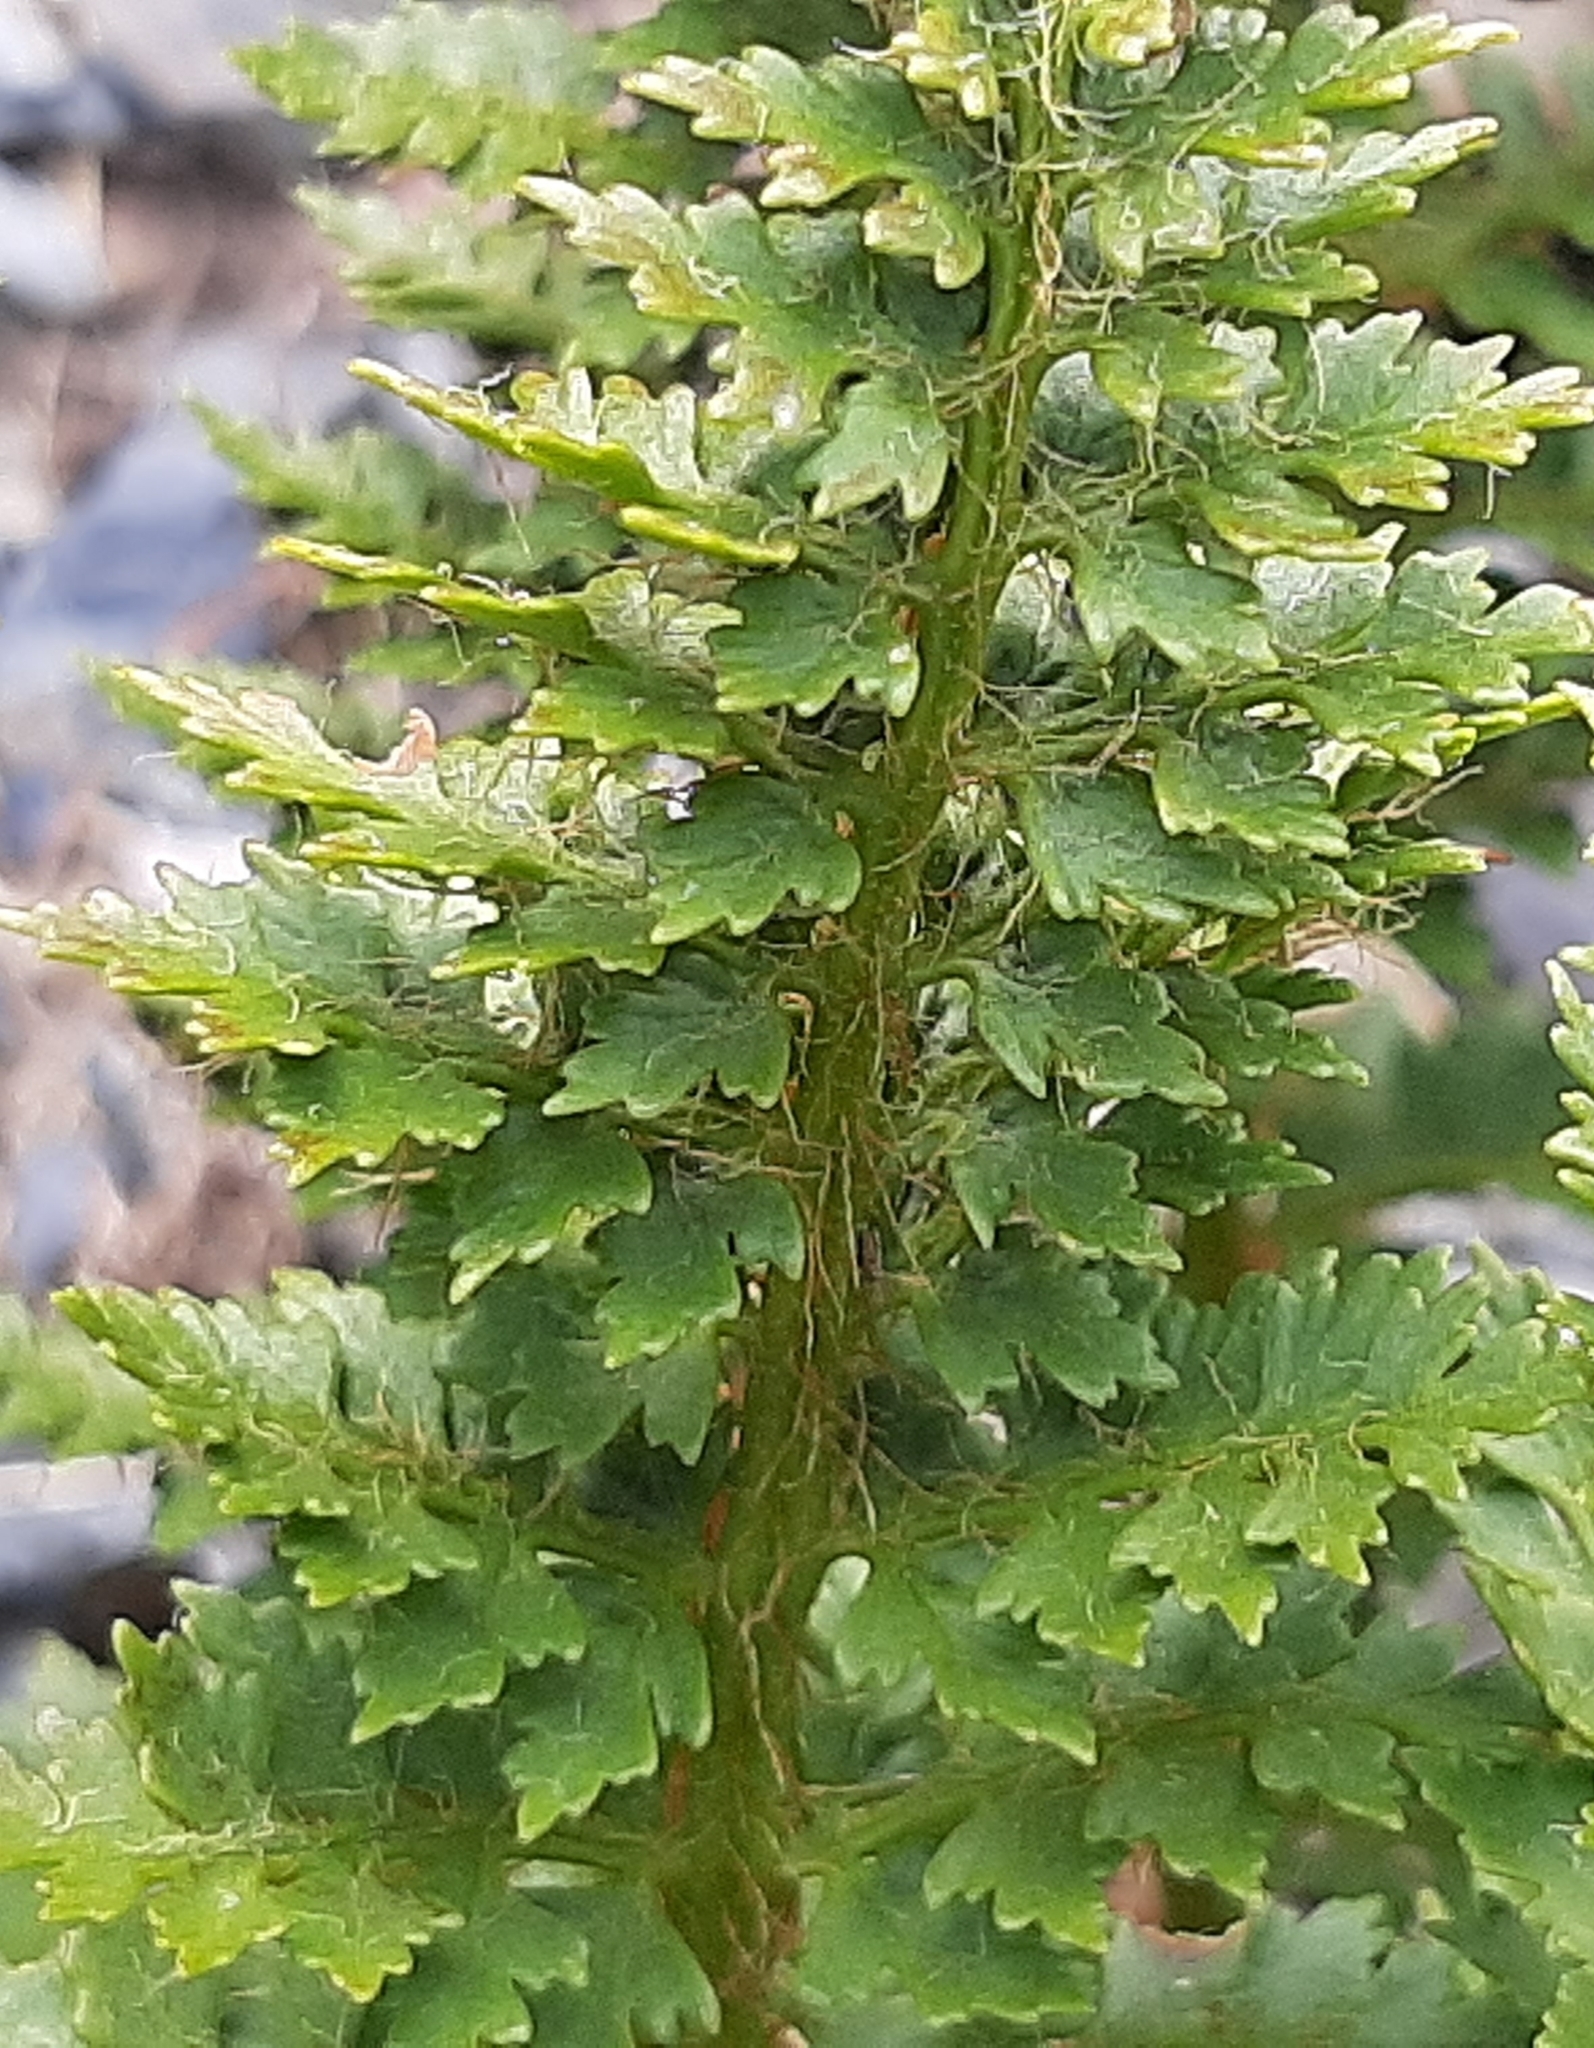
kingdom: Plantae
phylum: Tracheophyta
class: Polypodiopsida
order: Polypodiales
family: Dryopteridaceae
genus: Polystichum
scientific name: Polystichum cystostegia
